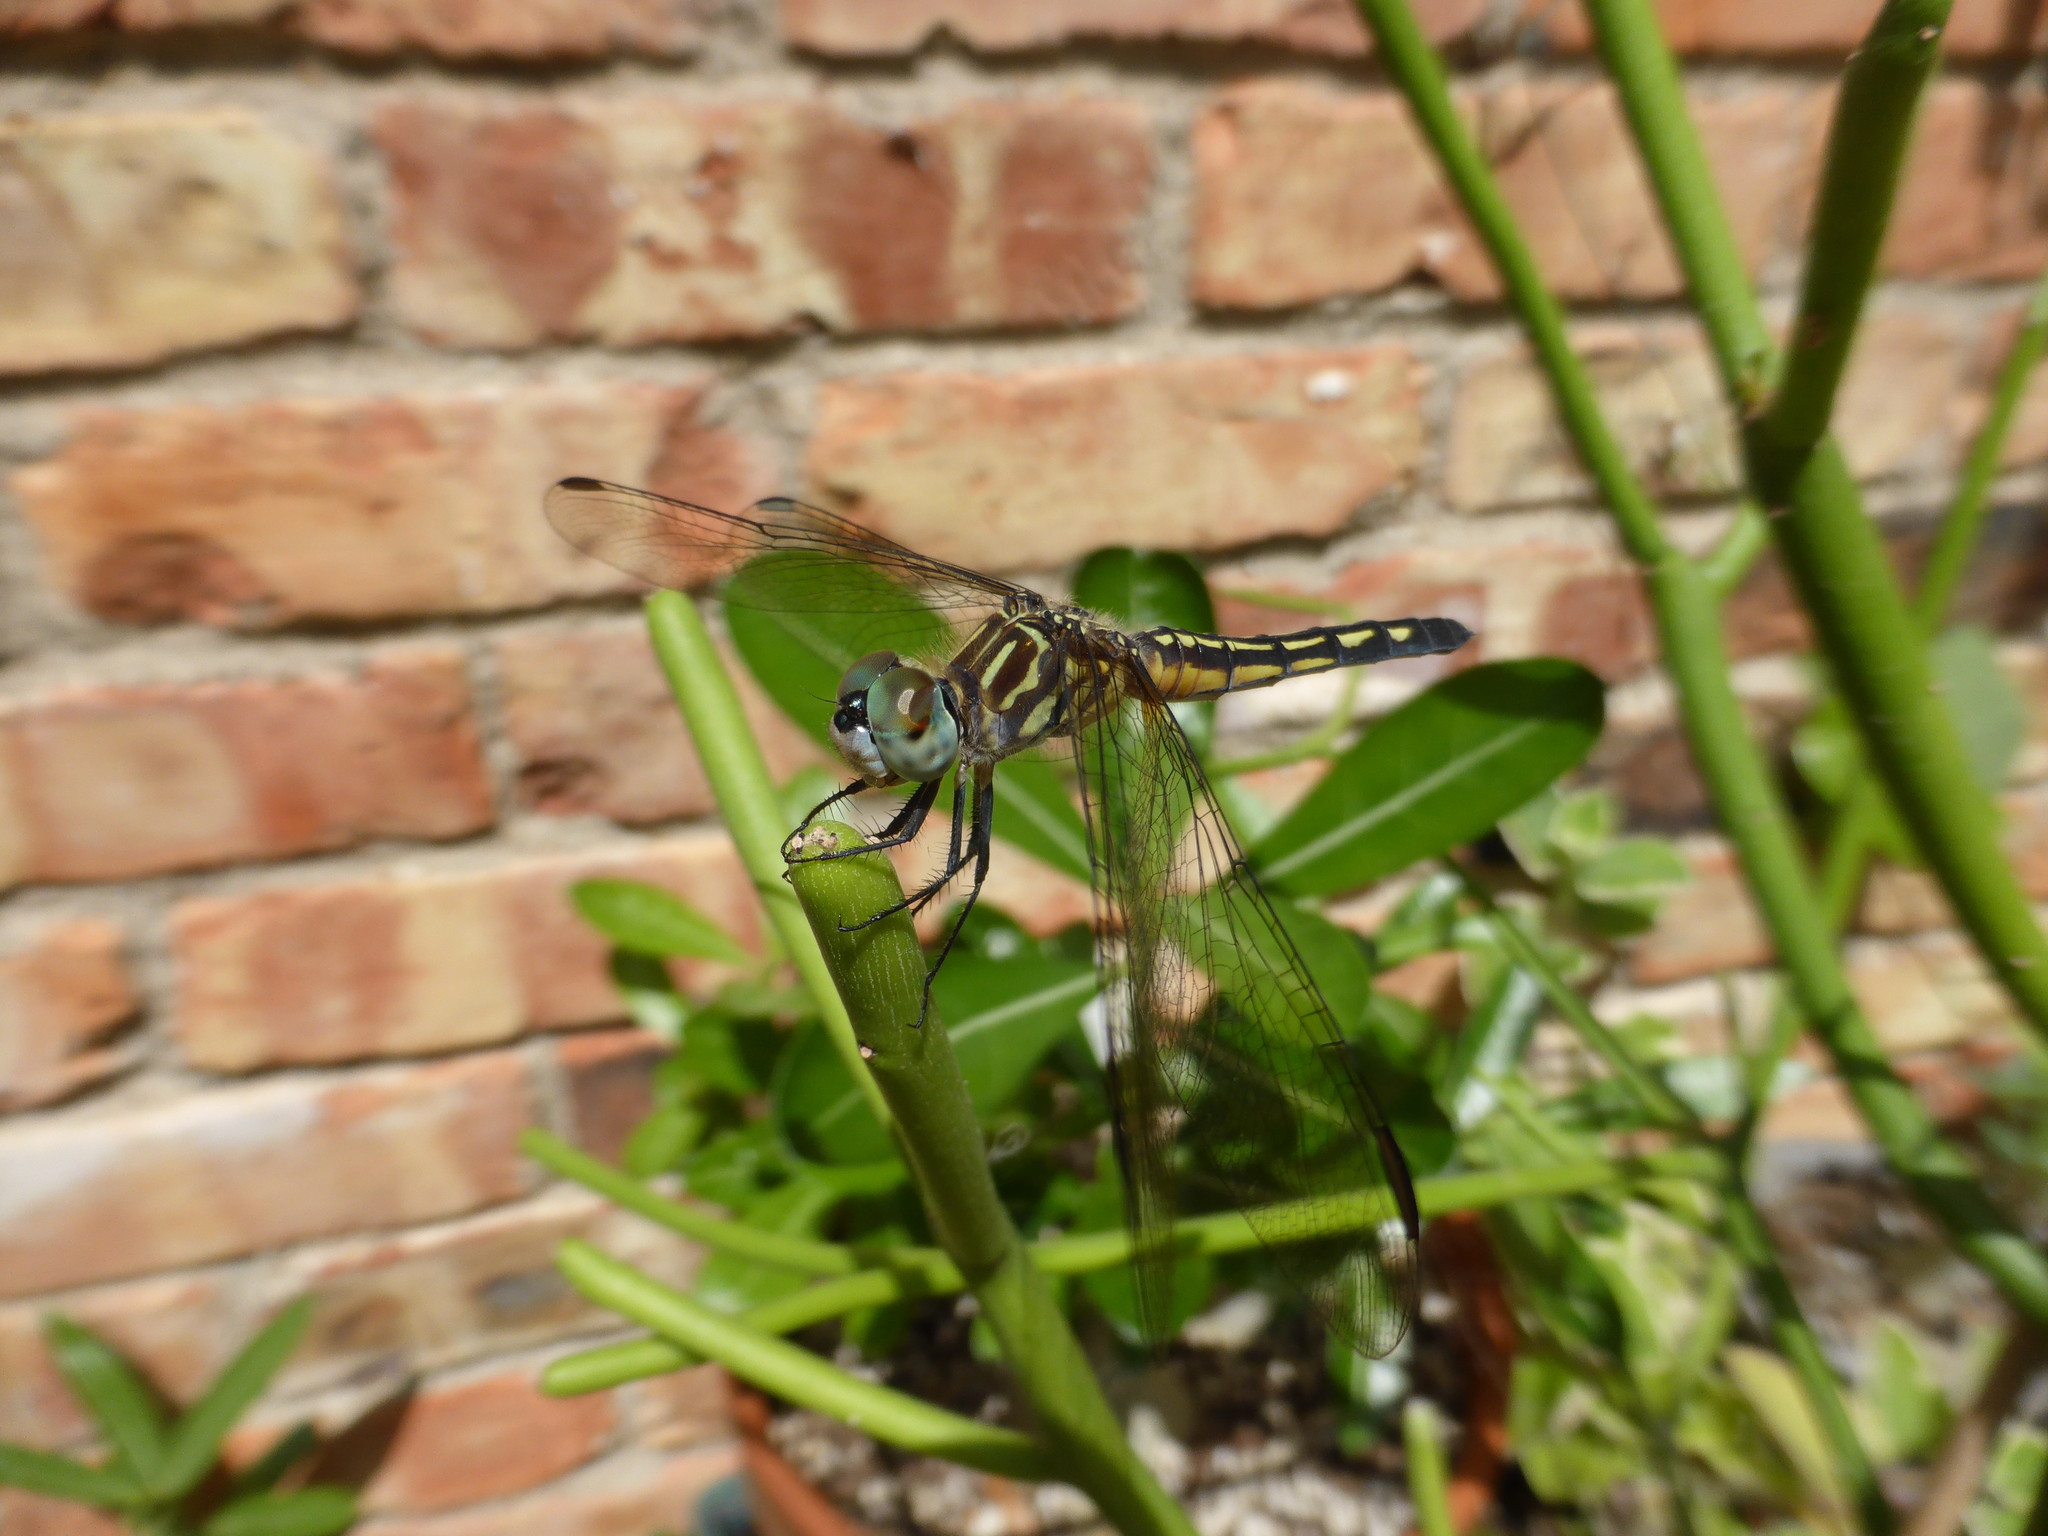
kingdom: Animalia
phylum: Arthropoda
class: Insecta
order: Odonata
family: Libellulidae
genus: Pachydiplax
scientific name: Pachydiplax longipennis
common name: Blue dasher
